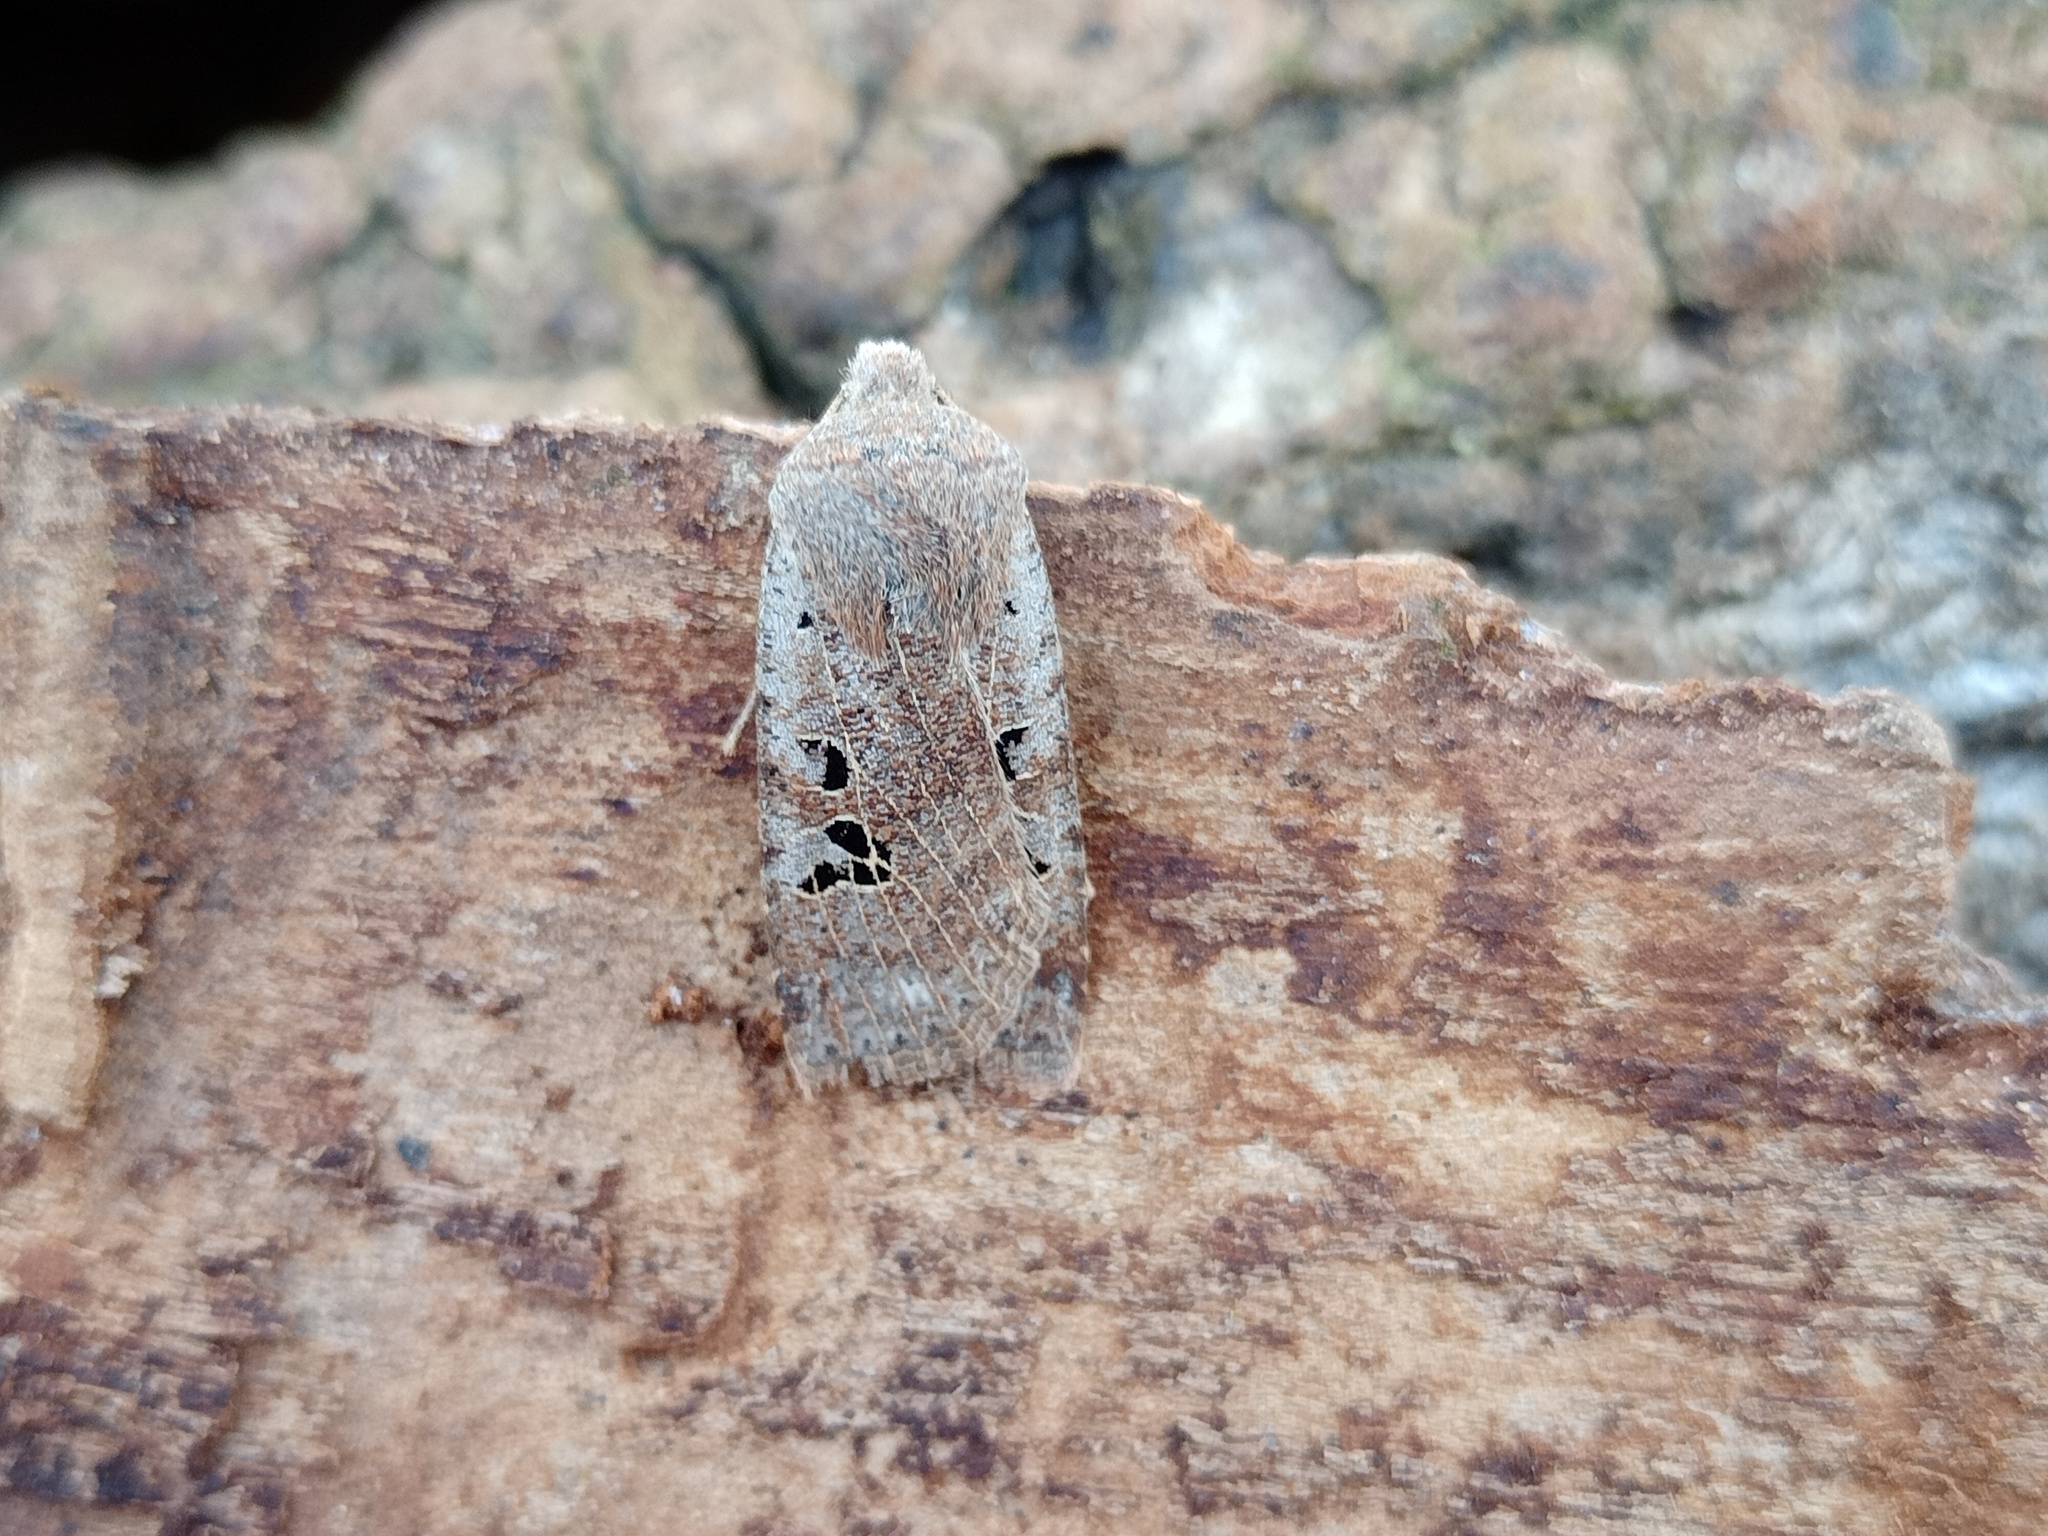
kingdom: Animalia
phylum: Arthropoda
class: Insecta
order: Lepidoptera
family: Noctuidae
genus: Conistra
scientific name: Conistra rubiginosa
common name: Black-spotted chestnut
